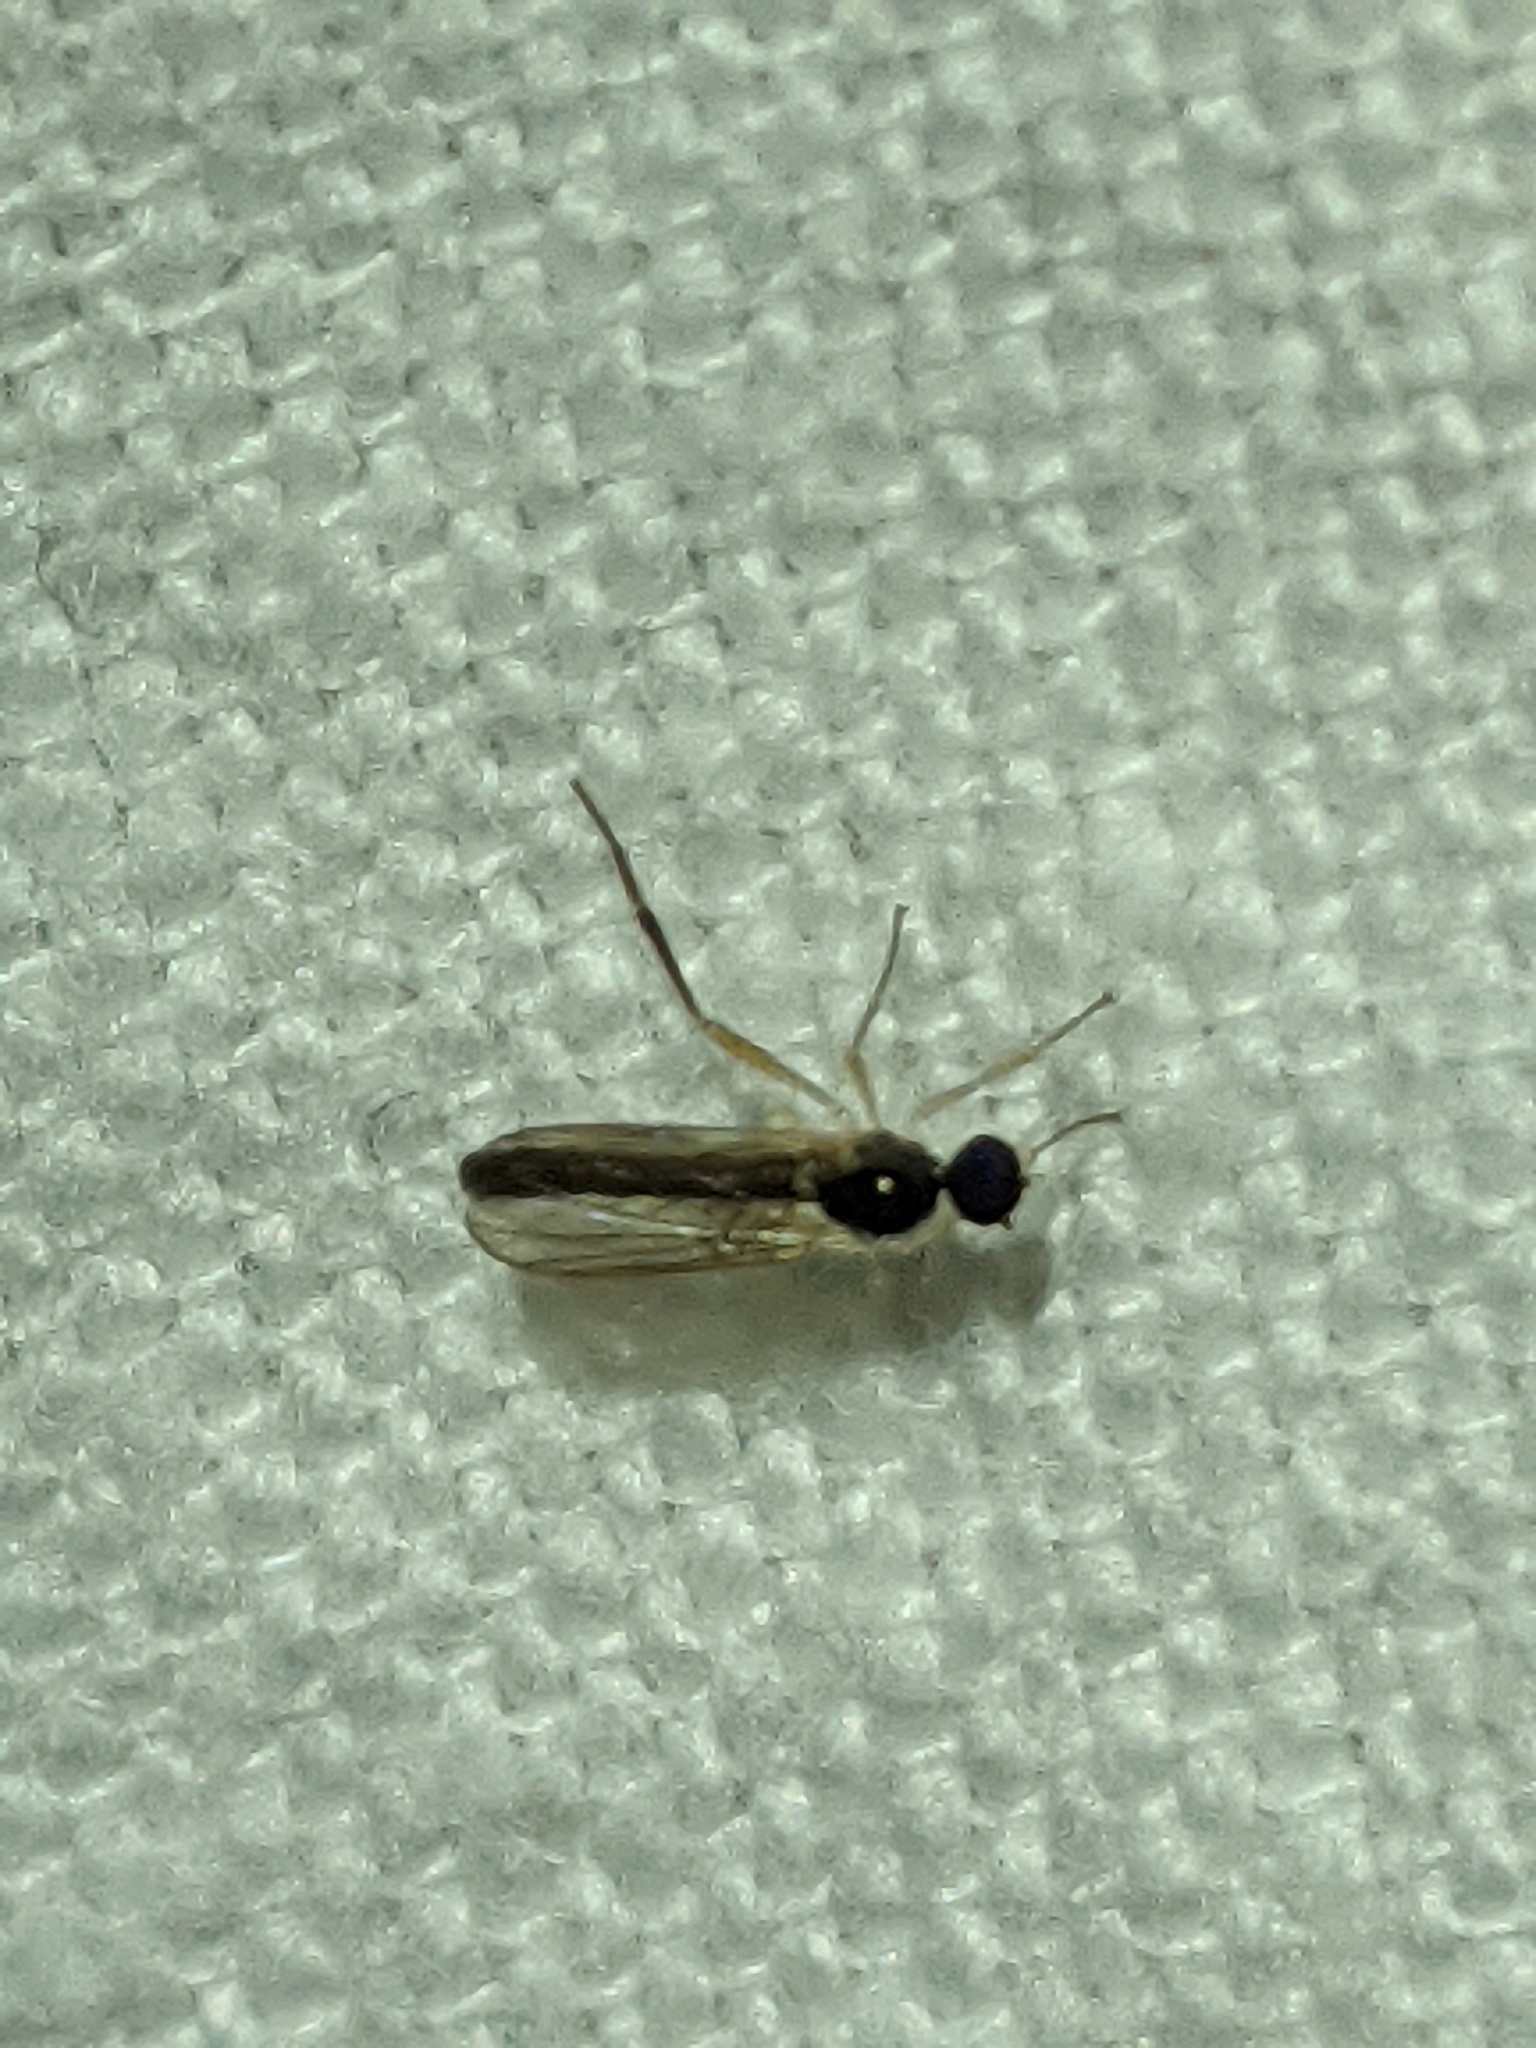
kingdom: Animalia
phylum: Arthropoda
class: Insecta
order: Diptera
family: Hybotidae
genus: Leptopeza
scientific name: Leptopeza compta
